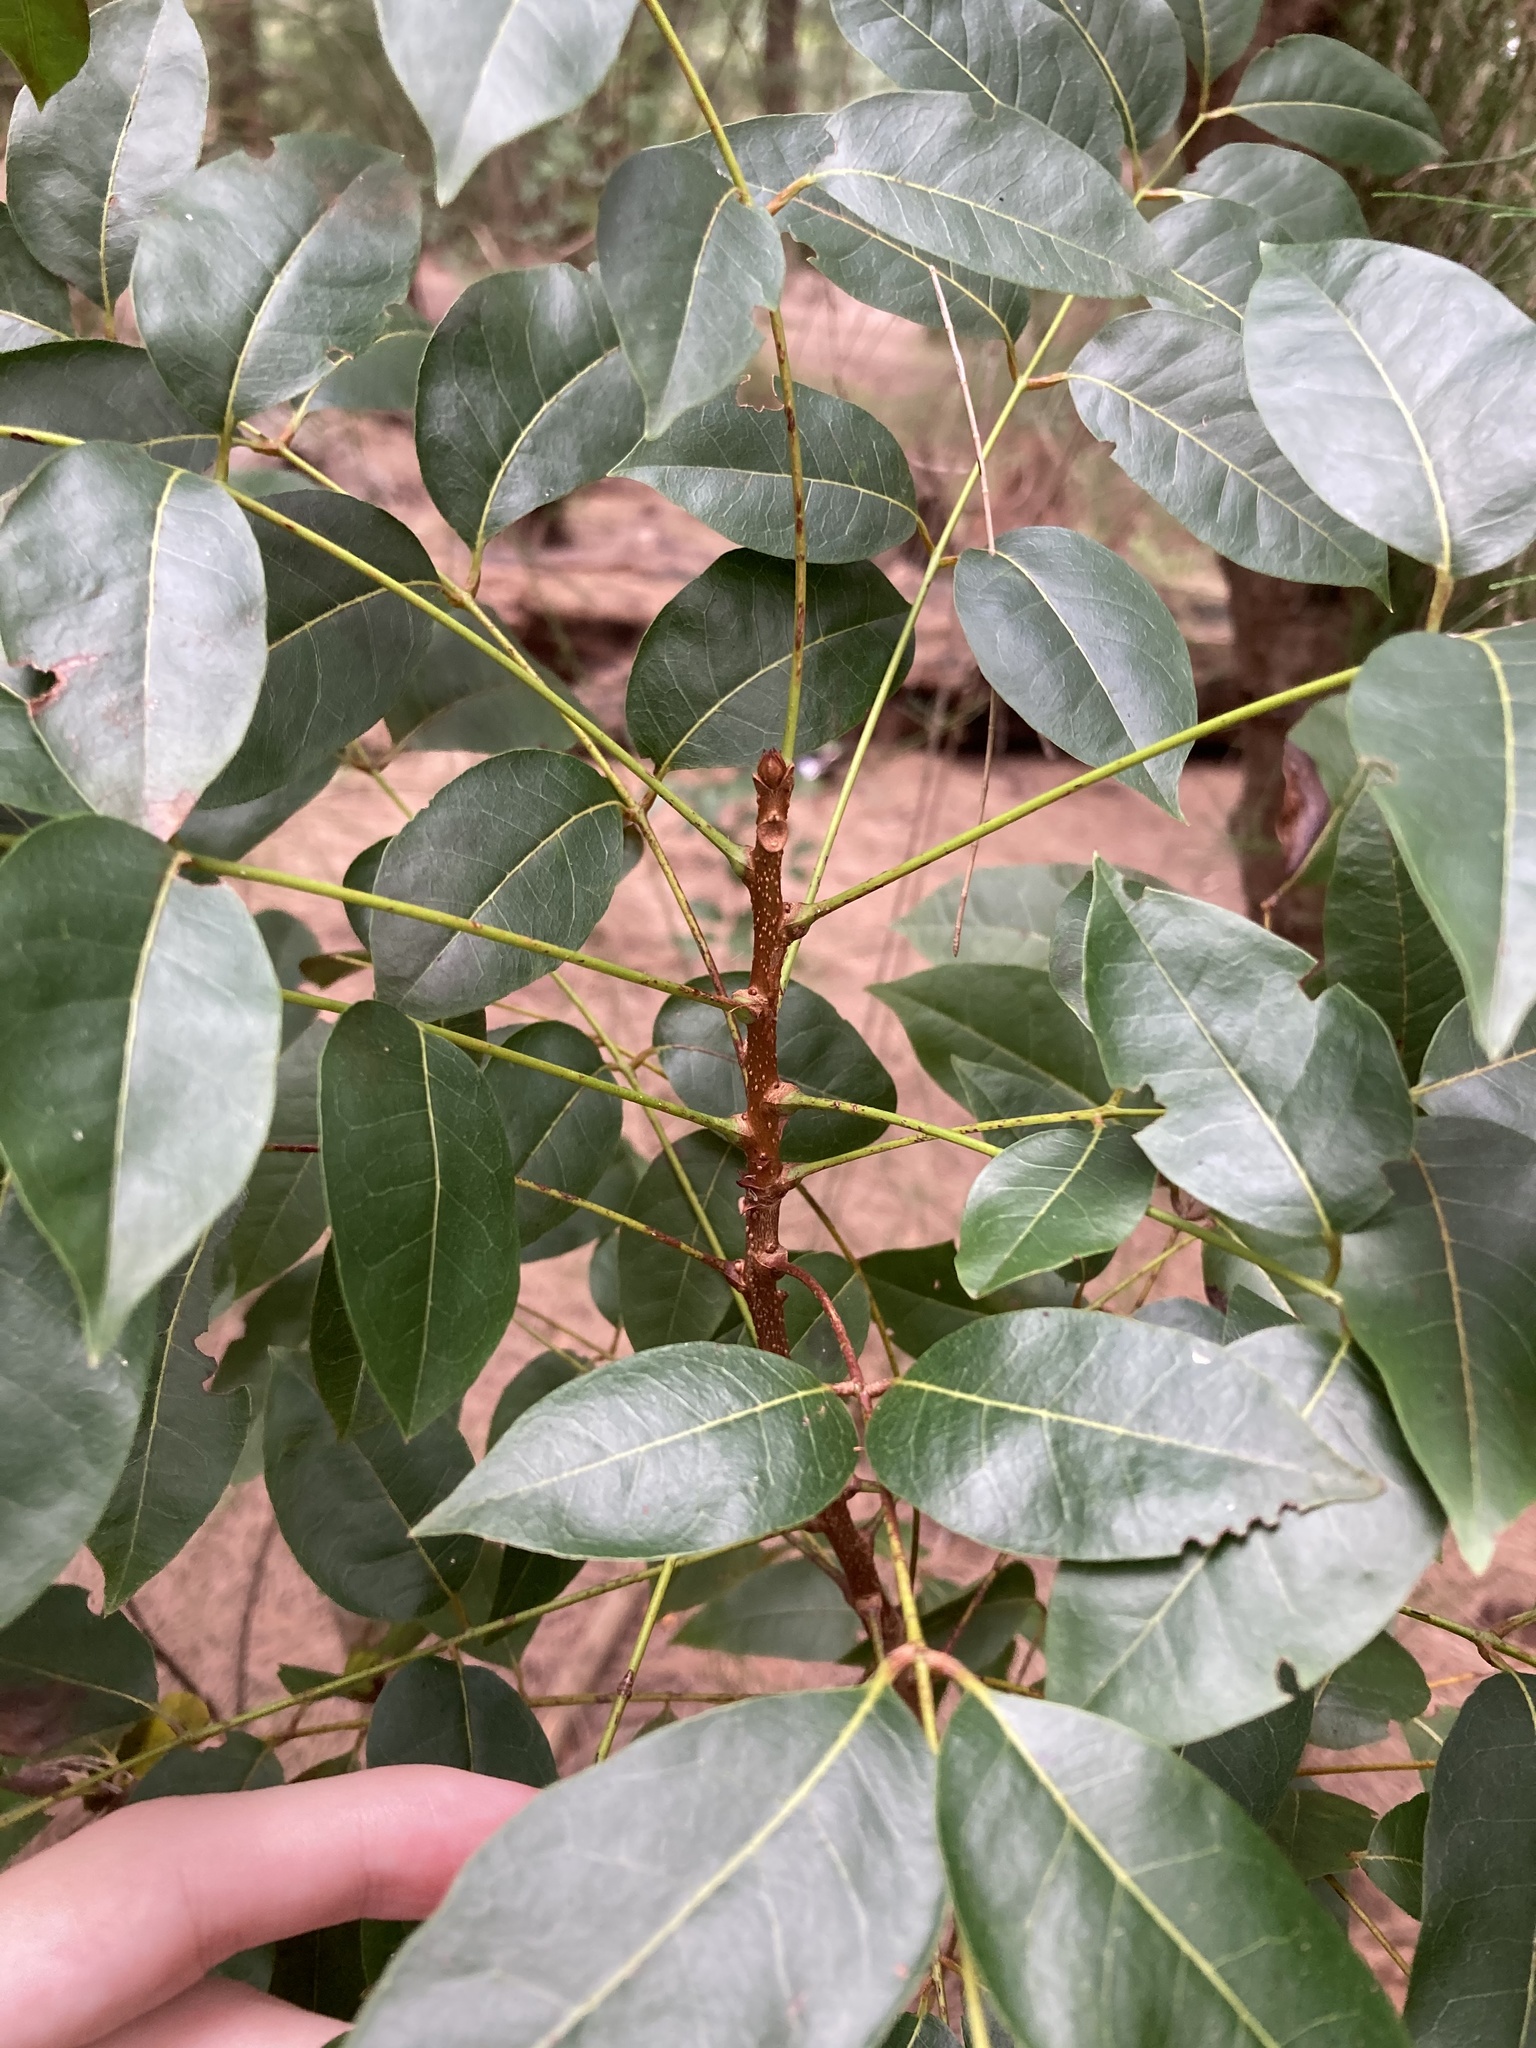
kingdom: Plantae
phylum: Tracheophyta
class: Magnoliopsida
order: Sapindales
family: Meliaceae
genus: Swietenia
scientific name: Swietenia mahagoni
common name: West indian mahogany
